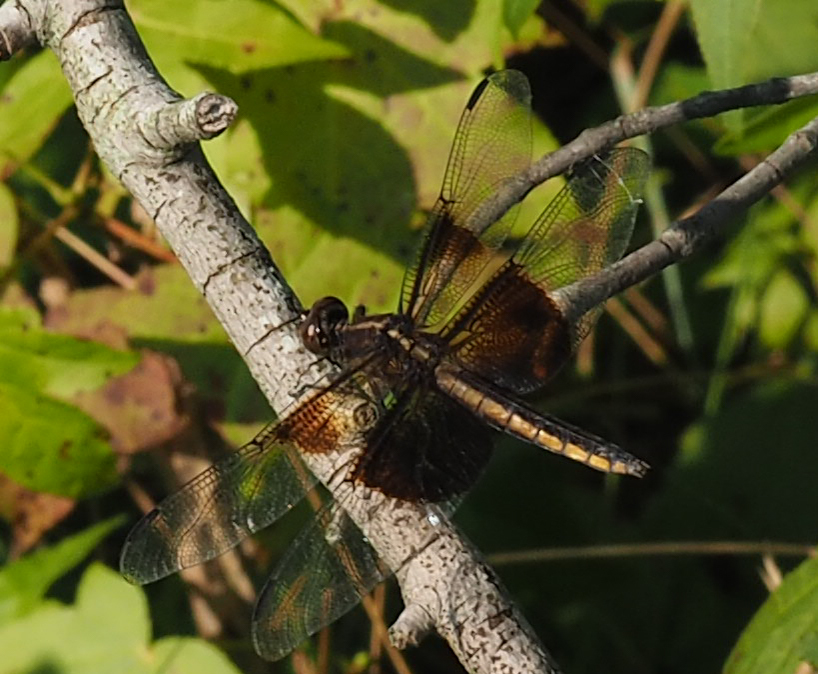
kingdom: Animalia
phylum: Arthropoda
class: Insecta
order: Odonata
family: Libellulidae
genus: Libellula
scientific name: Libellula luctuosa
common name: Widow skimmer
